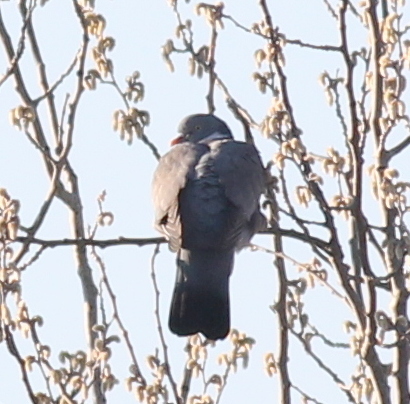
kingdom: Animalia
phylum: Chordata
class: Aves
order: Columbiformes
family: Columbidae
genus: Columba
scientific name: Columba palumbus
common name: Common wood pigeon
